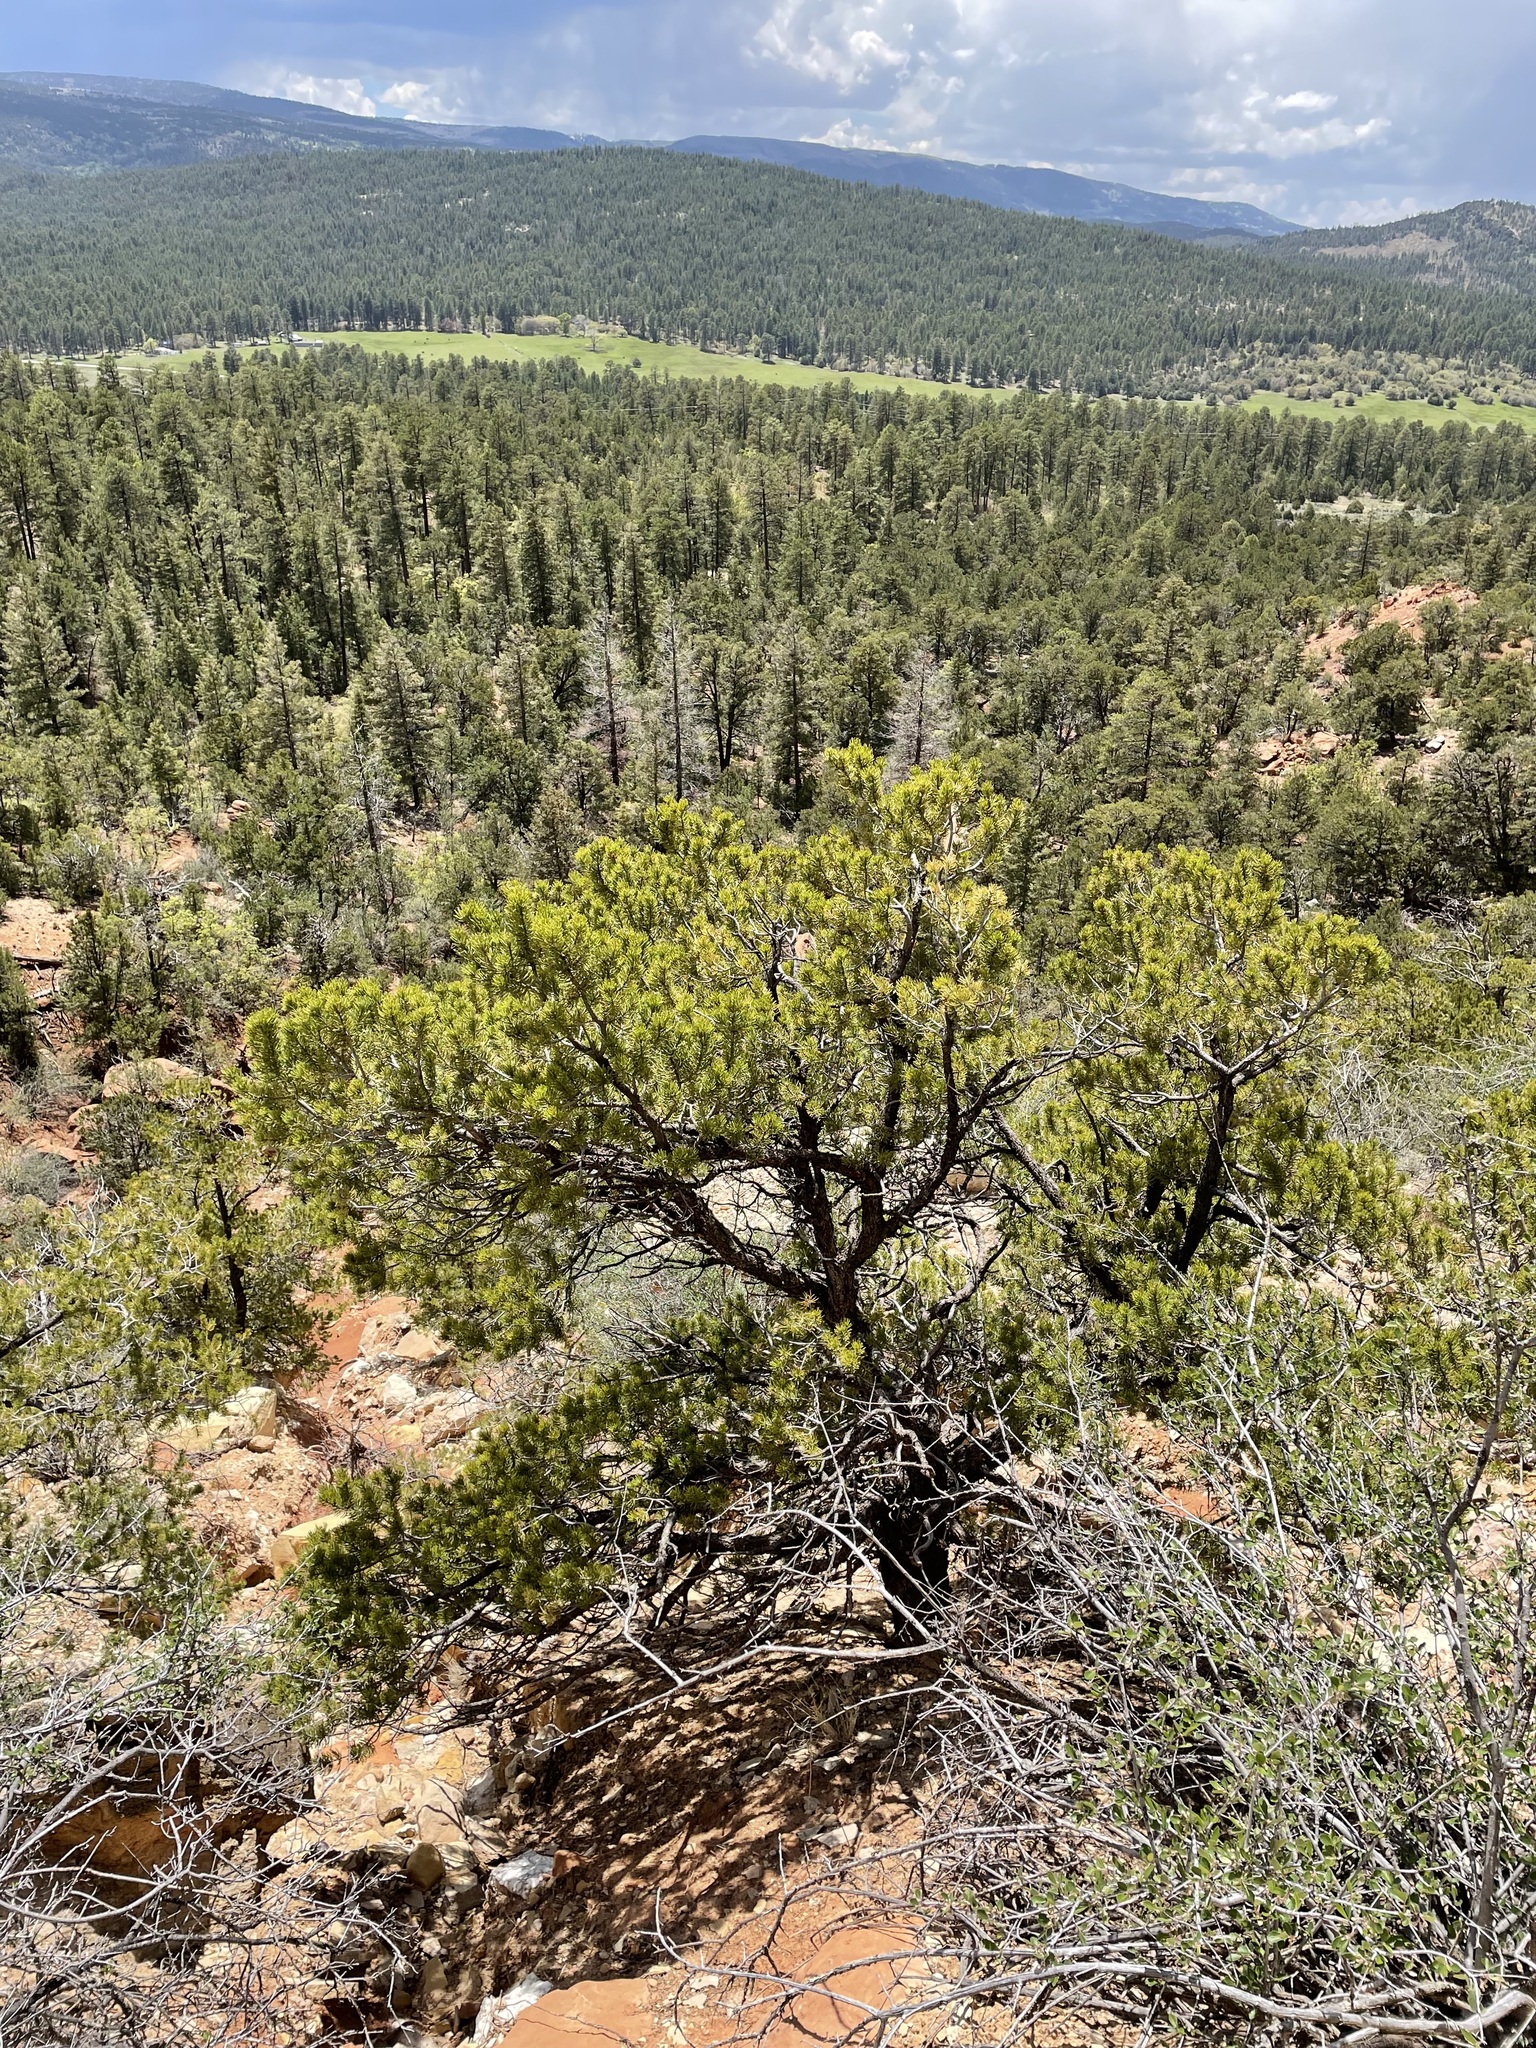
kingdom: Plantae
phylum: Tracheophyta
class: Pinopsida
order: Pinales
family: Pinaceae
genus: Pinus
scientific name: Pinus edulis
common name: Colorado pinyon
